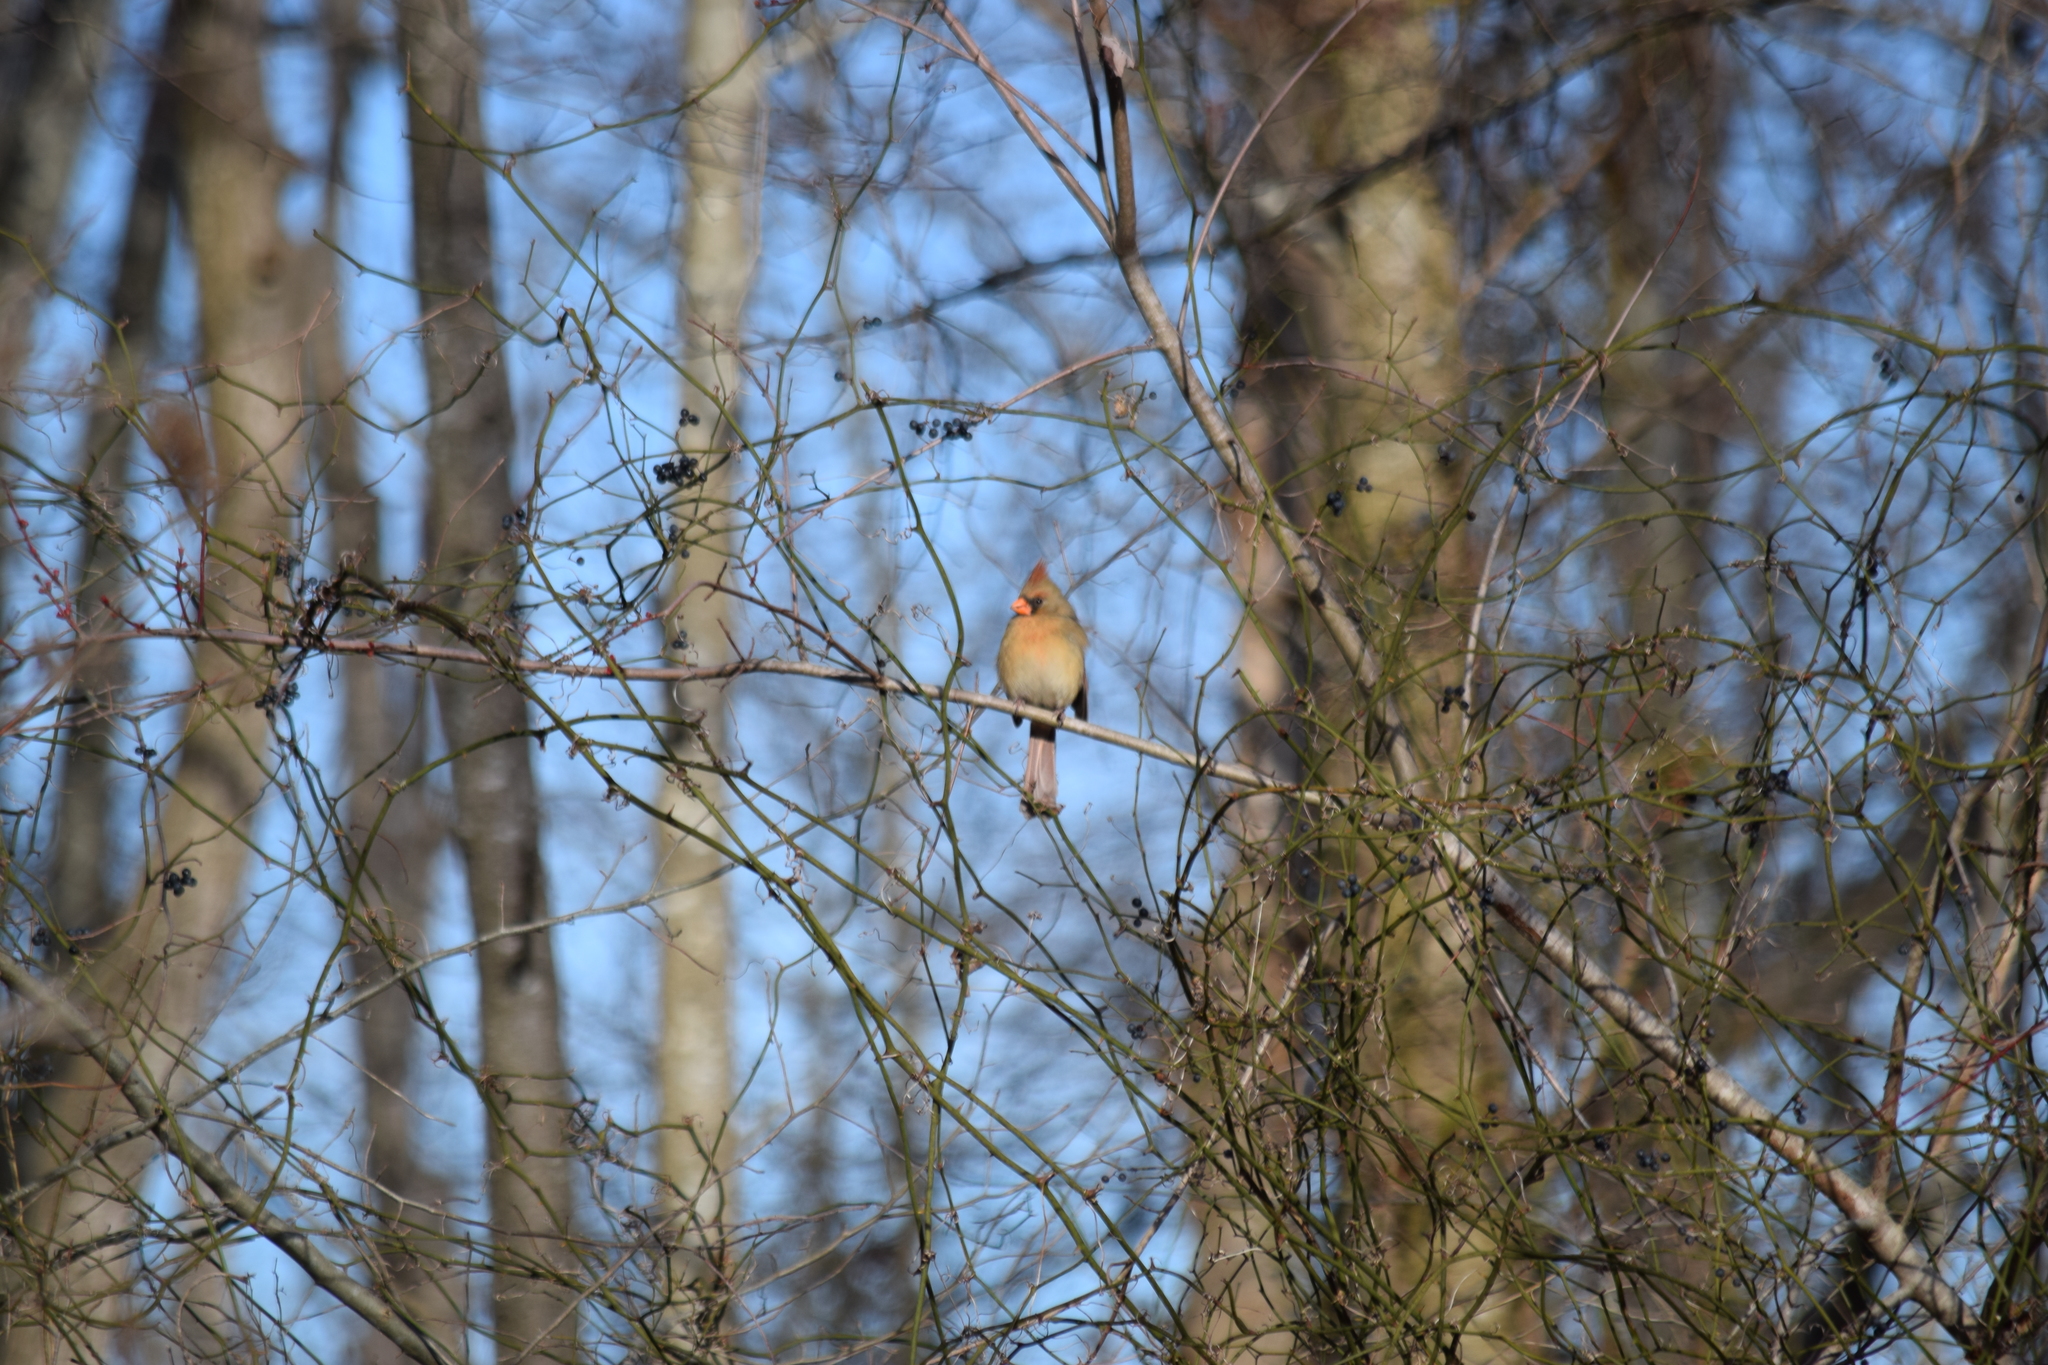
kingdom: Animalia
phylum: Chordata
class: Aves
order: Passeriformes
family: Cardinalidae
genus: Cardinalis
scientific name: Cardinalis cardinalis
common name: Northern cardinal
